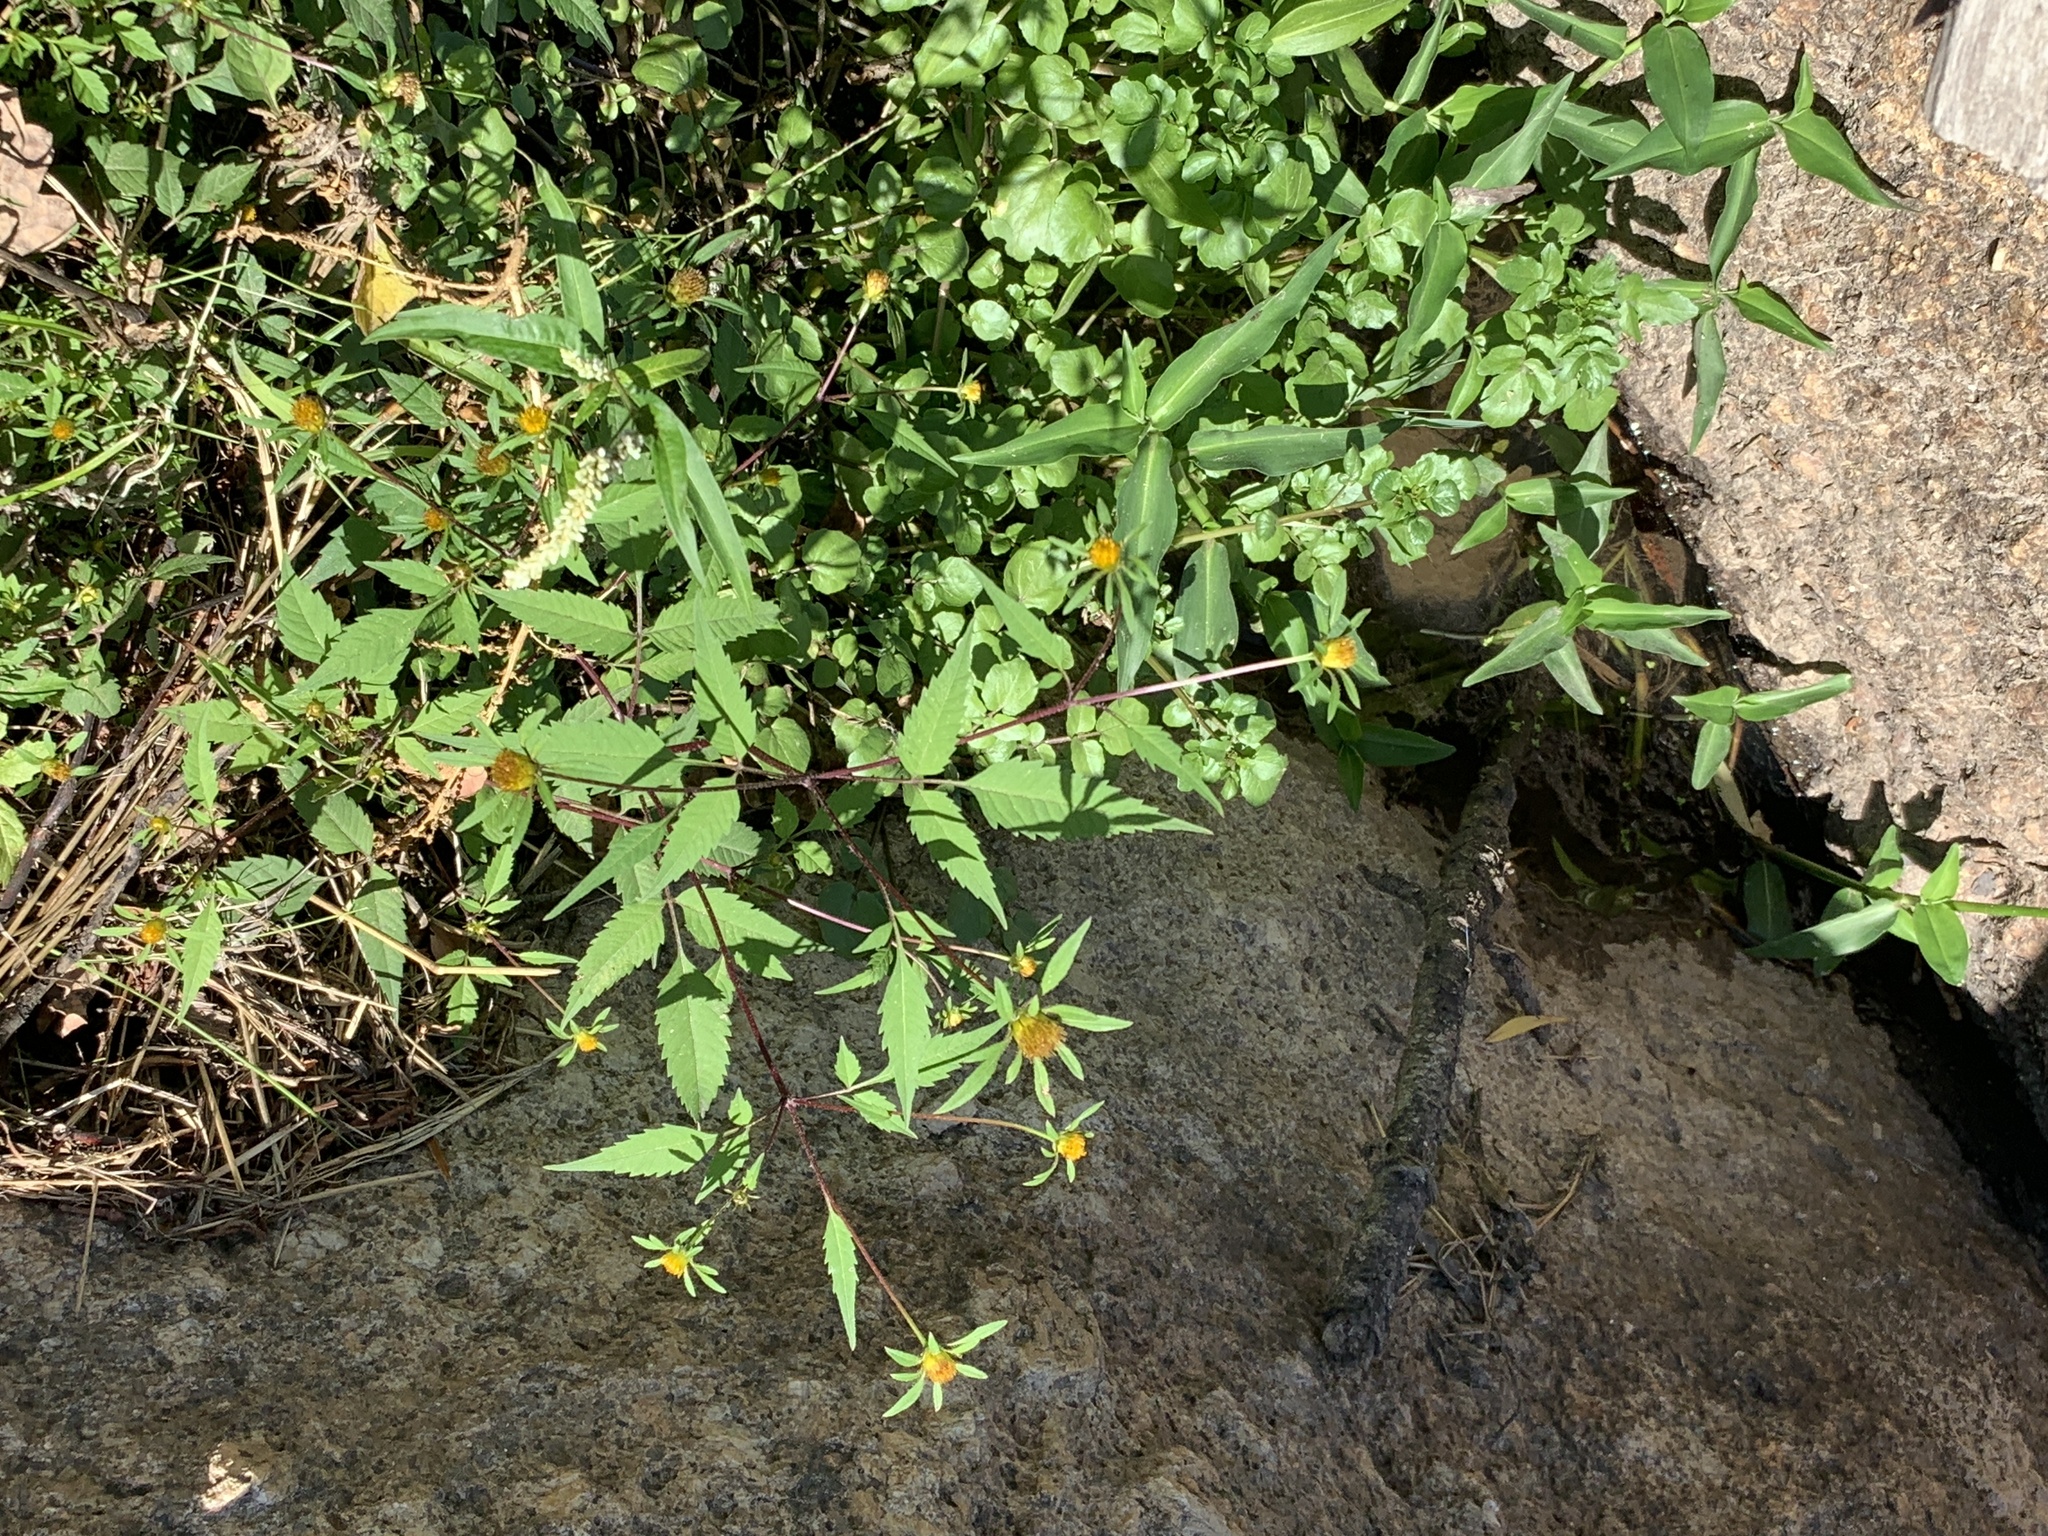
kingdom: Plantae
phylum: Tracheophyta
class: Magnoliopsida
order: Asterales
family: Asteraceae
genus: Bidens
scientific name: Bidens frondosa
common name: Beggarticks
